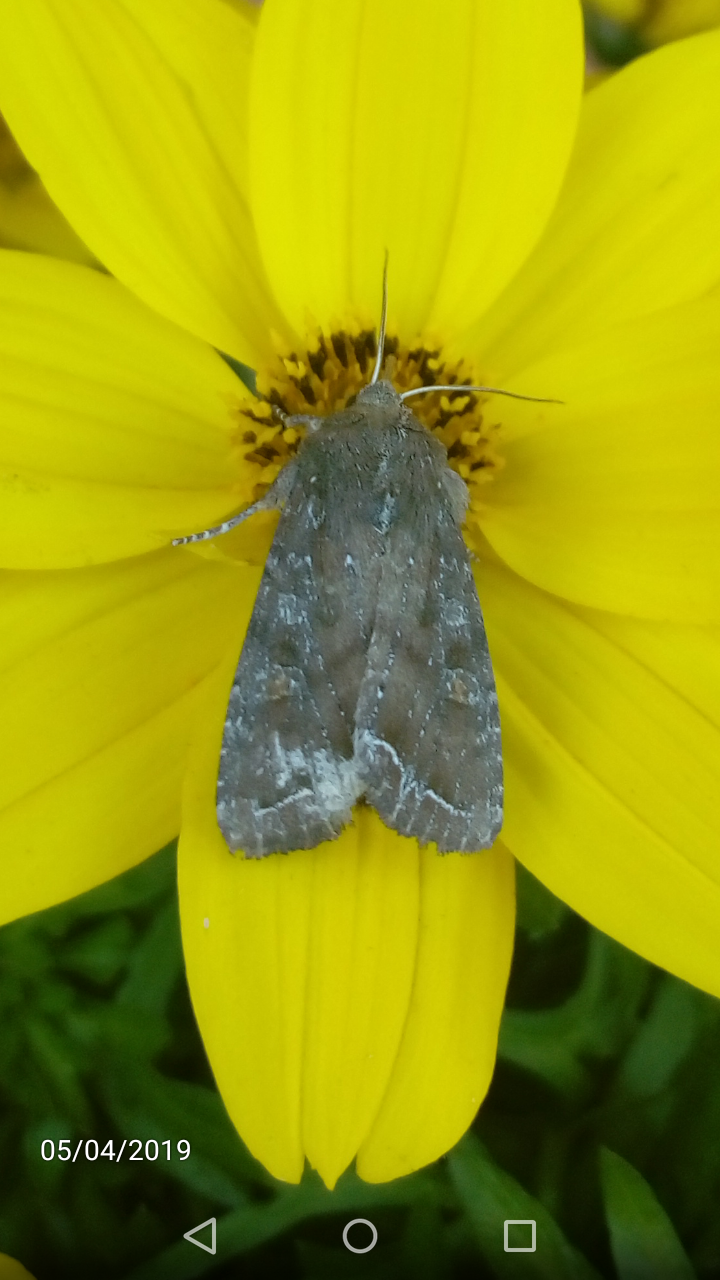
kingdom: Animalia
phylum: Arthropoda
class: Insecta
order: Lepidoptera
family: Noctuidae
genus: Lacanobia
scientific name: Lacanobia oleracea
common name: Bright-line brown-eye
